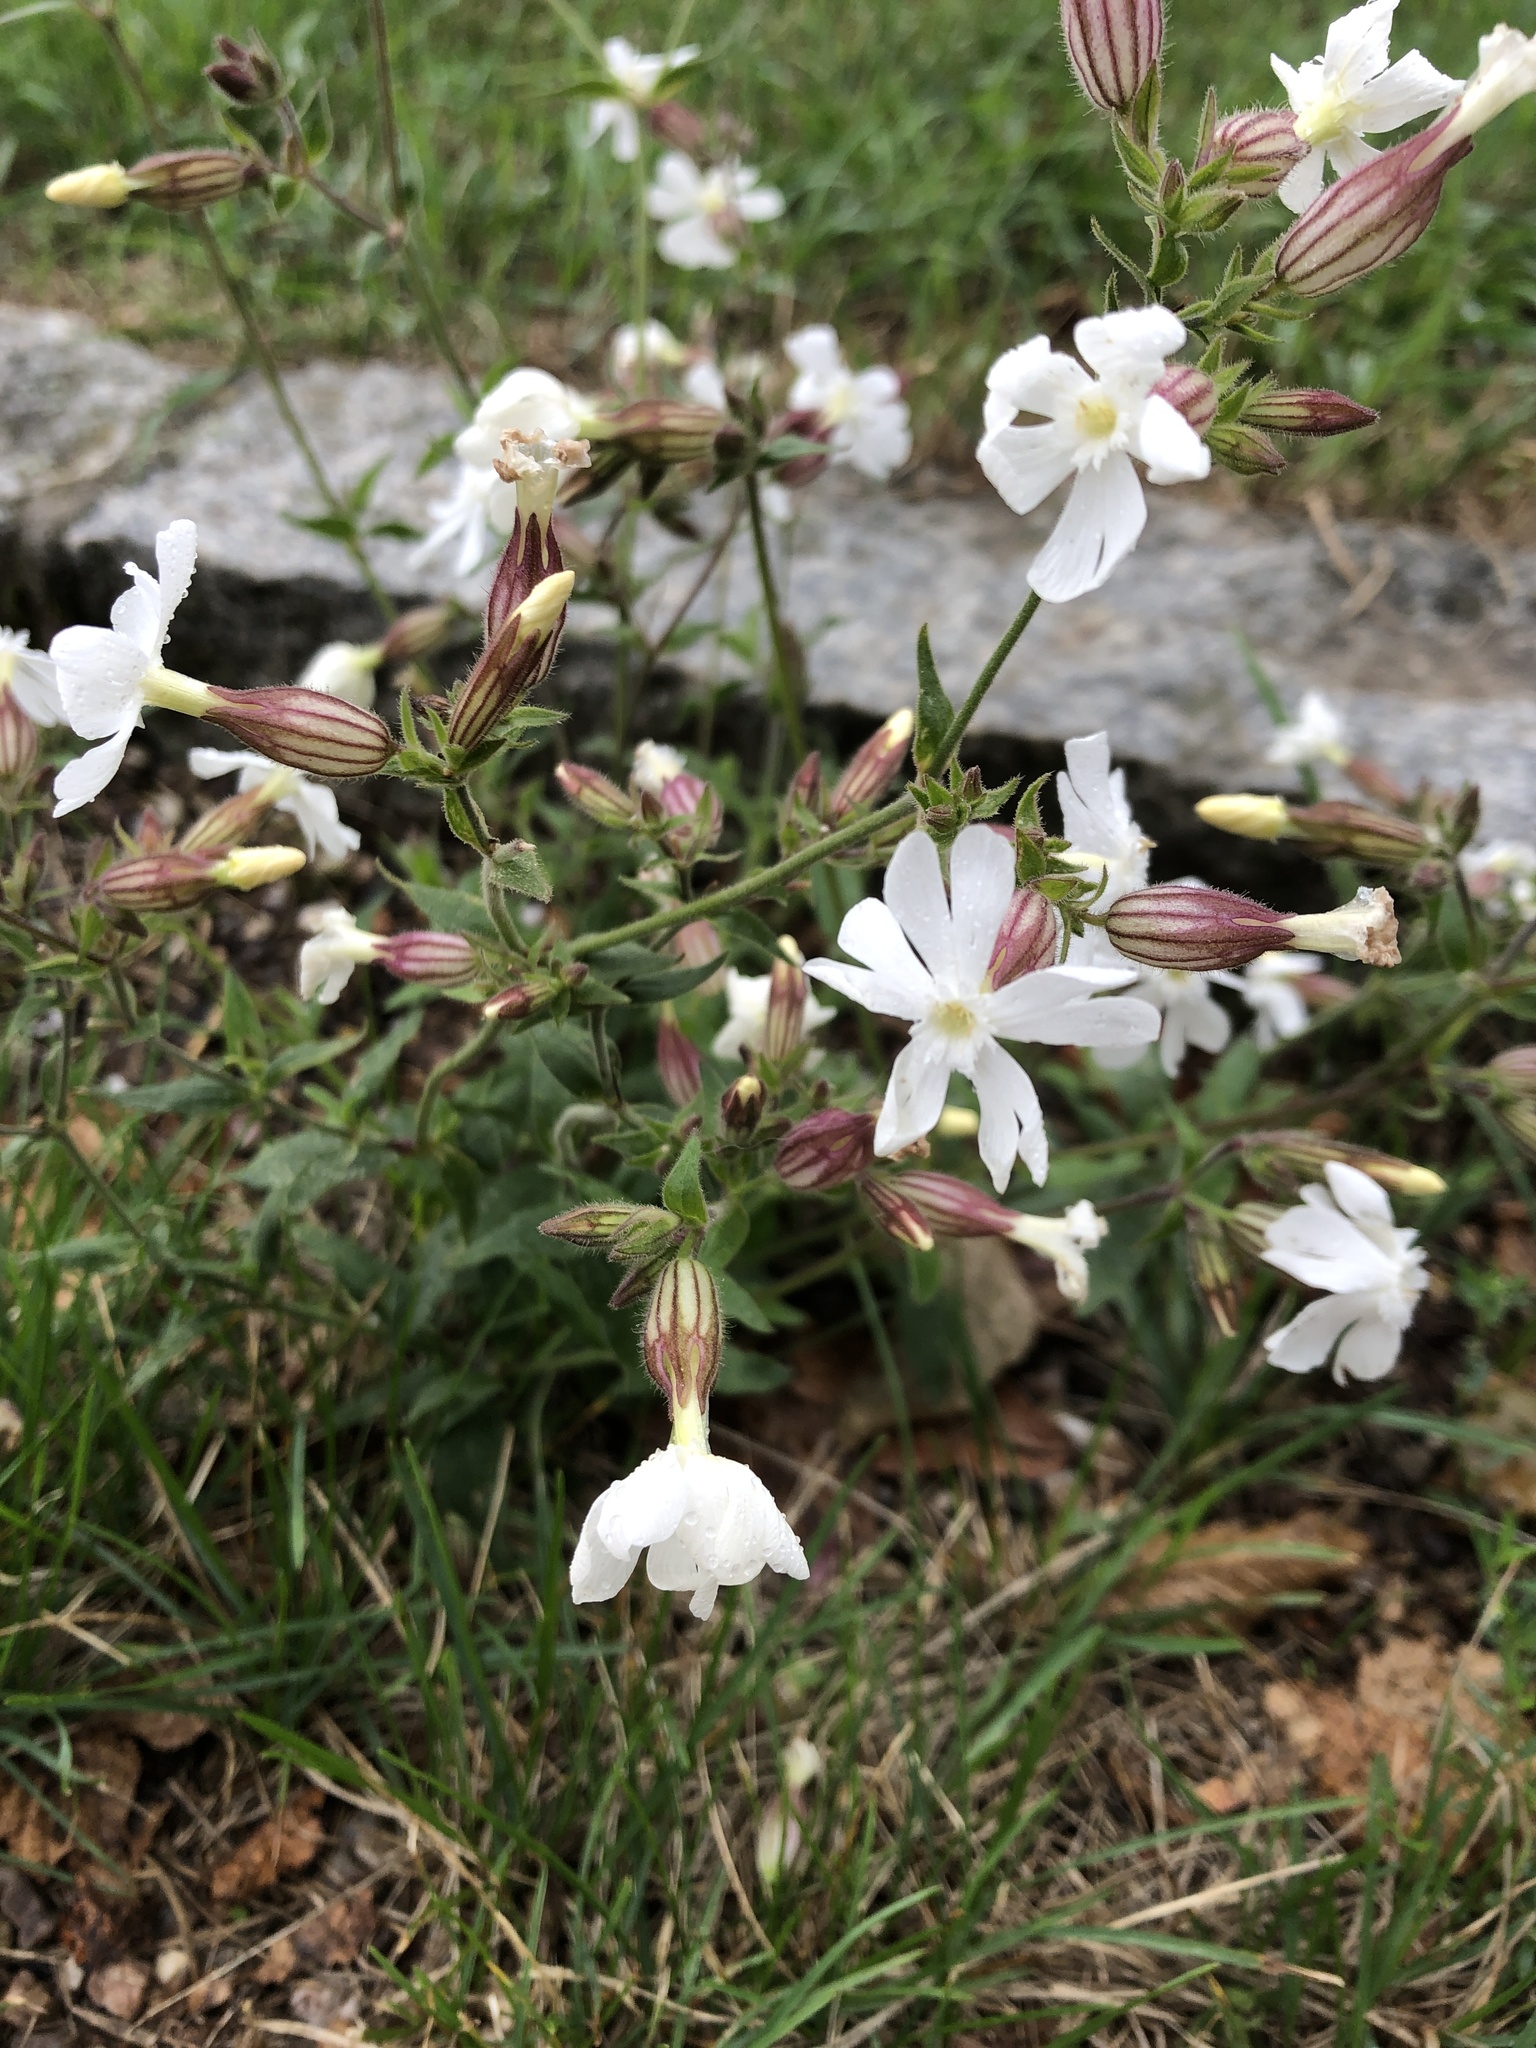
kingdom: Plantae
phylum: Tracheophyta
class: Magnoliopsida
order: Caryophyllales
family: Caryophyllaceae
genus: Silene
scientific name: Silene latifolia
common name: White campion
